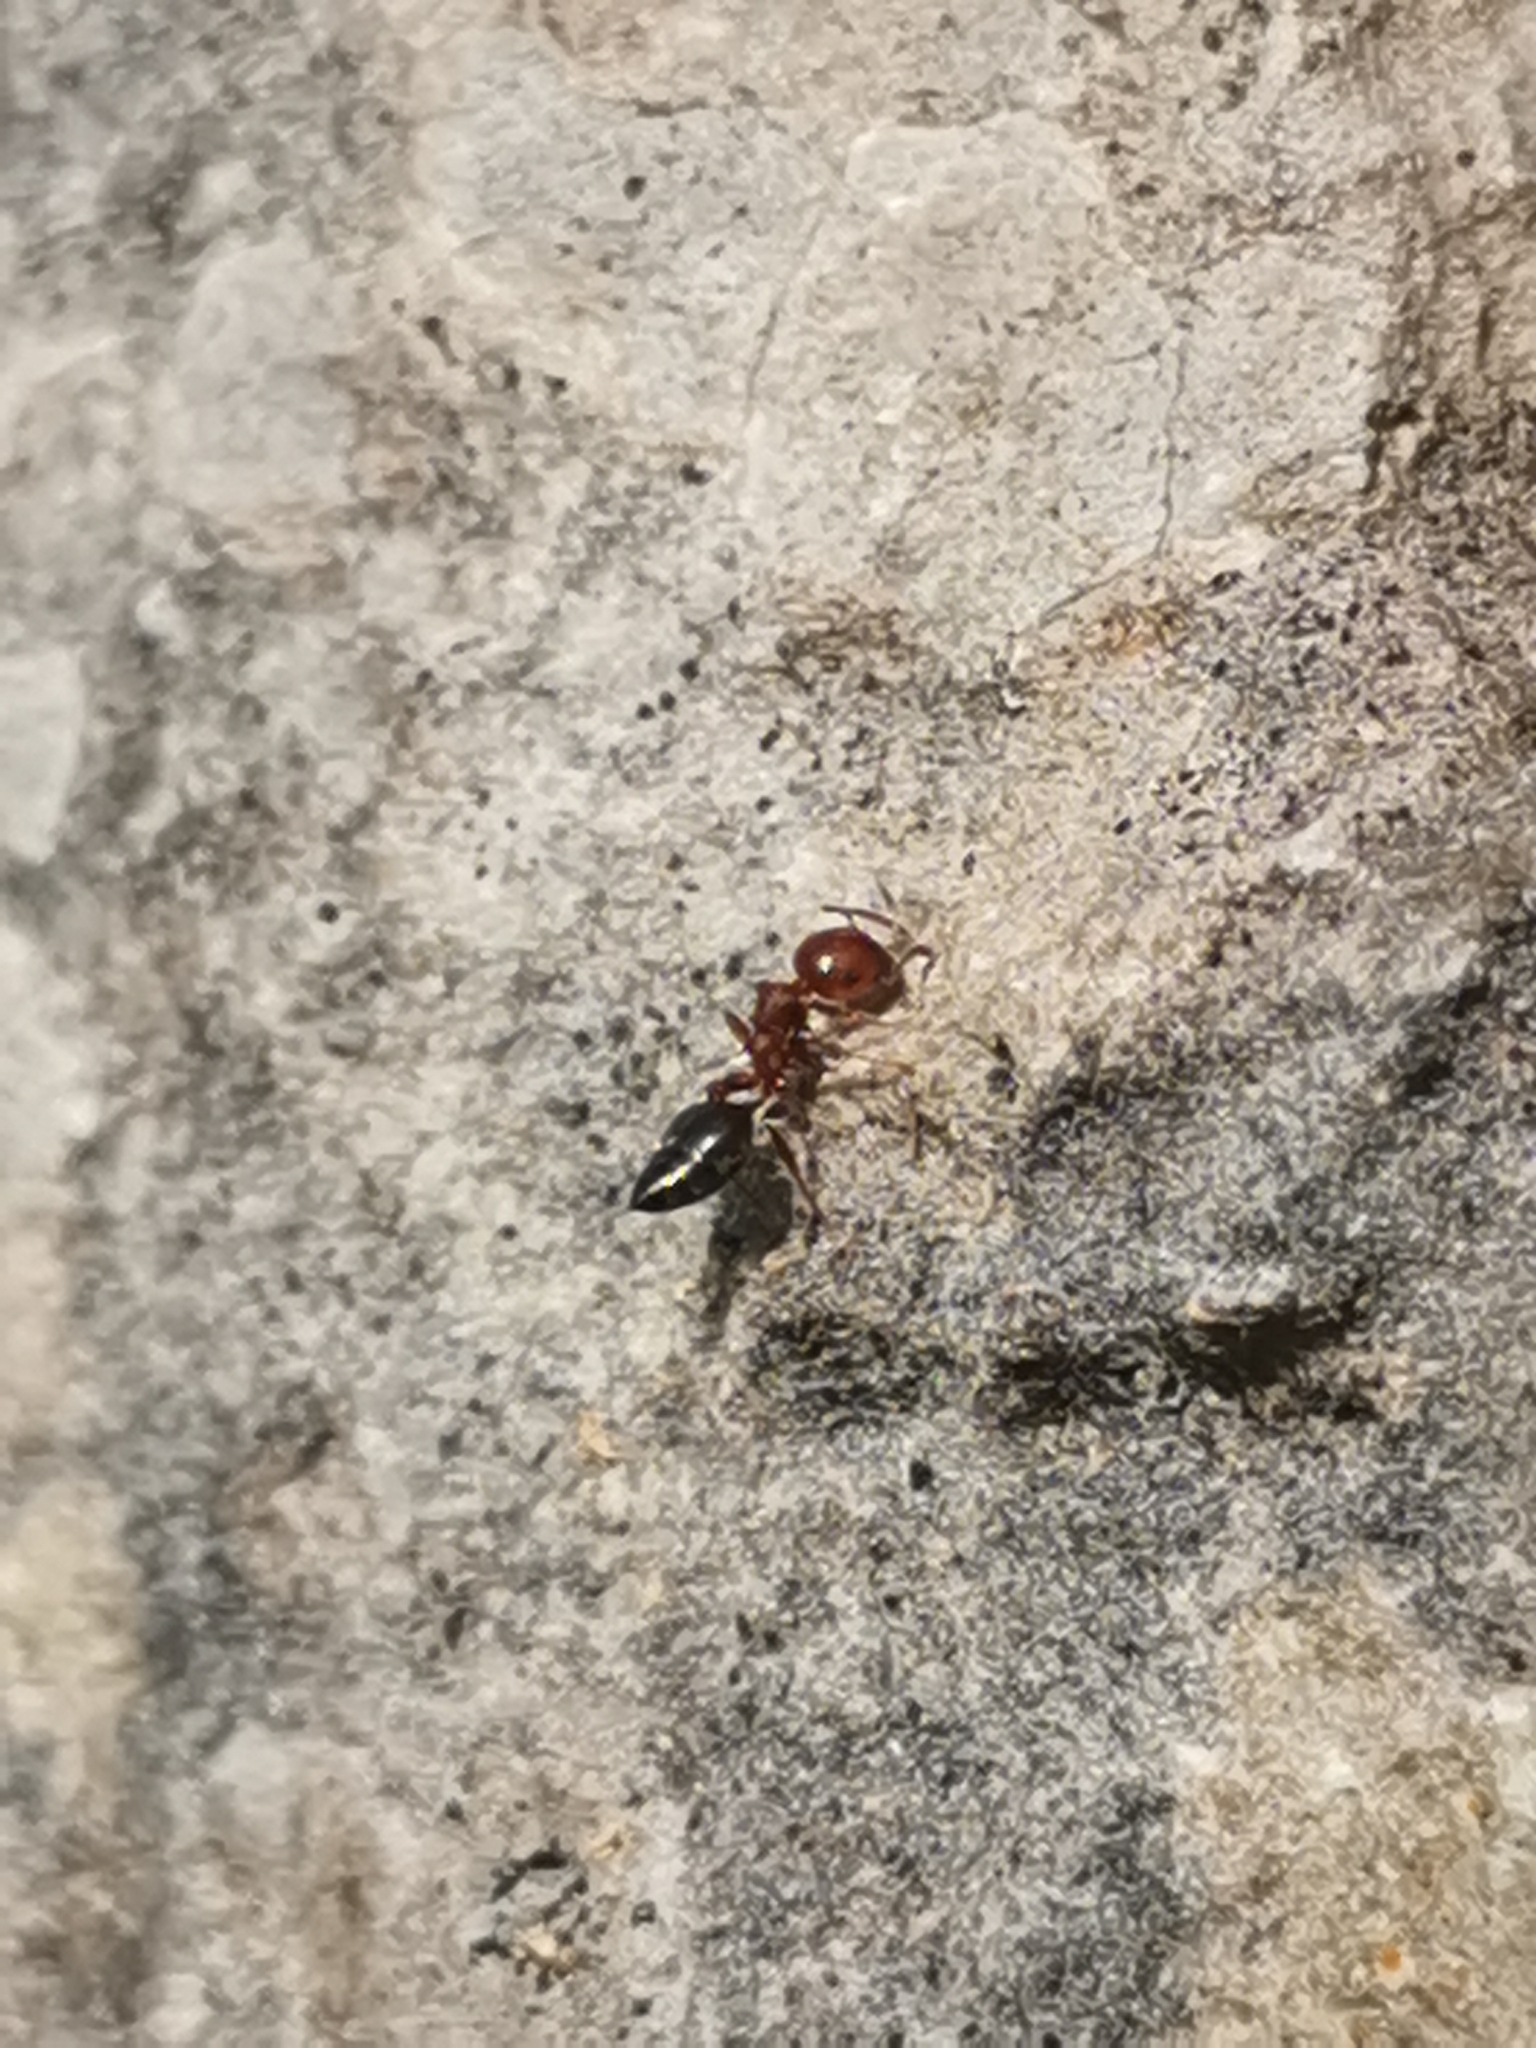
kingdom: Animalia
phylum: Arthropoda
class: Insecta
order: Hymenoptera
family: Formicidae
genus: Crematogaster
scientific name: Crematogaster schmidti
